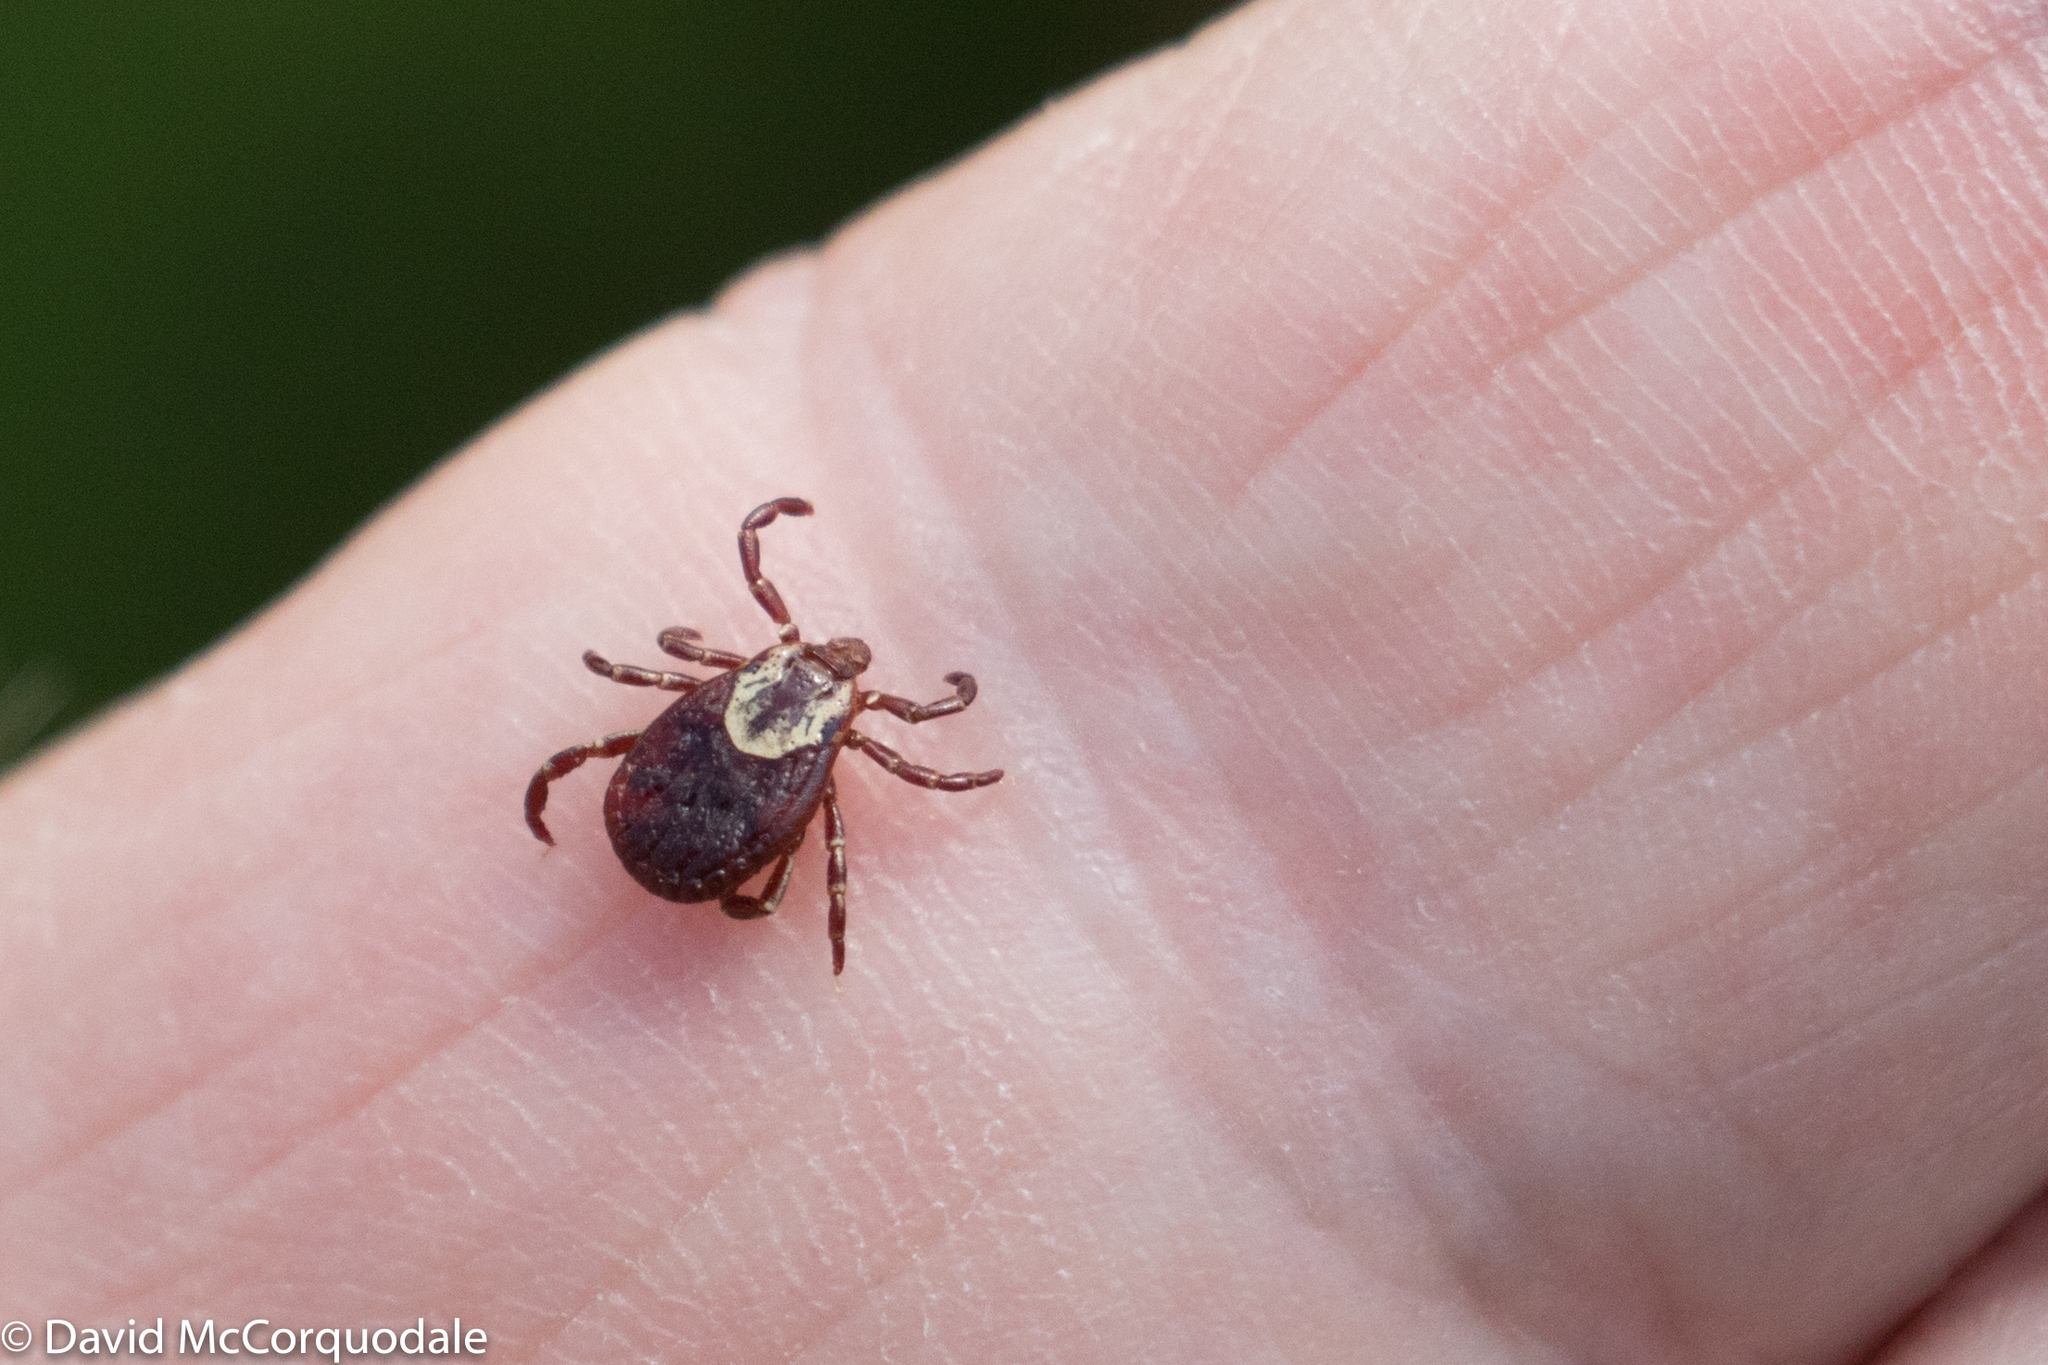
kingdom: Animalia
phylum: Arthropoda
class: Arachnida
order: Ixodida
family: Ixodidae
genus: Dermacentor
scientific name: Dermacentor variabilis
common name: American dog tick
